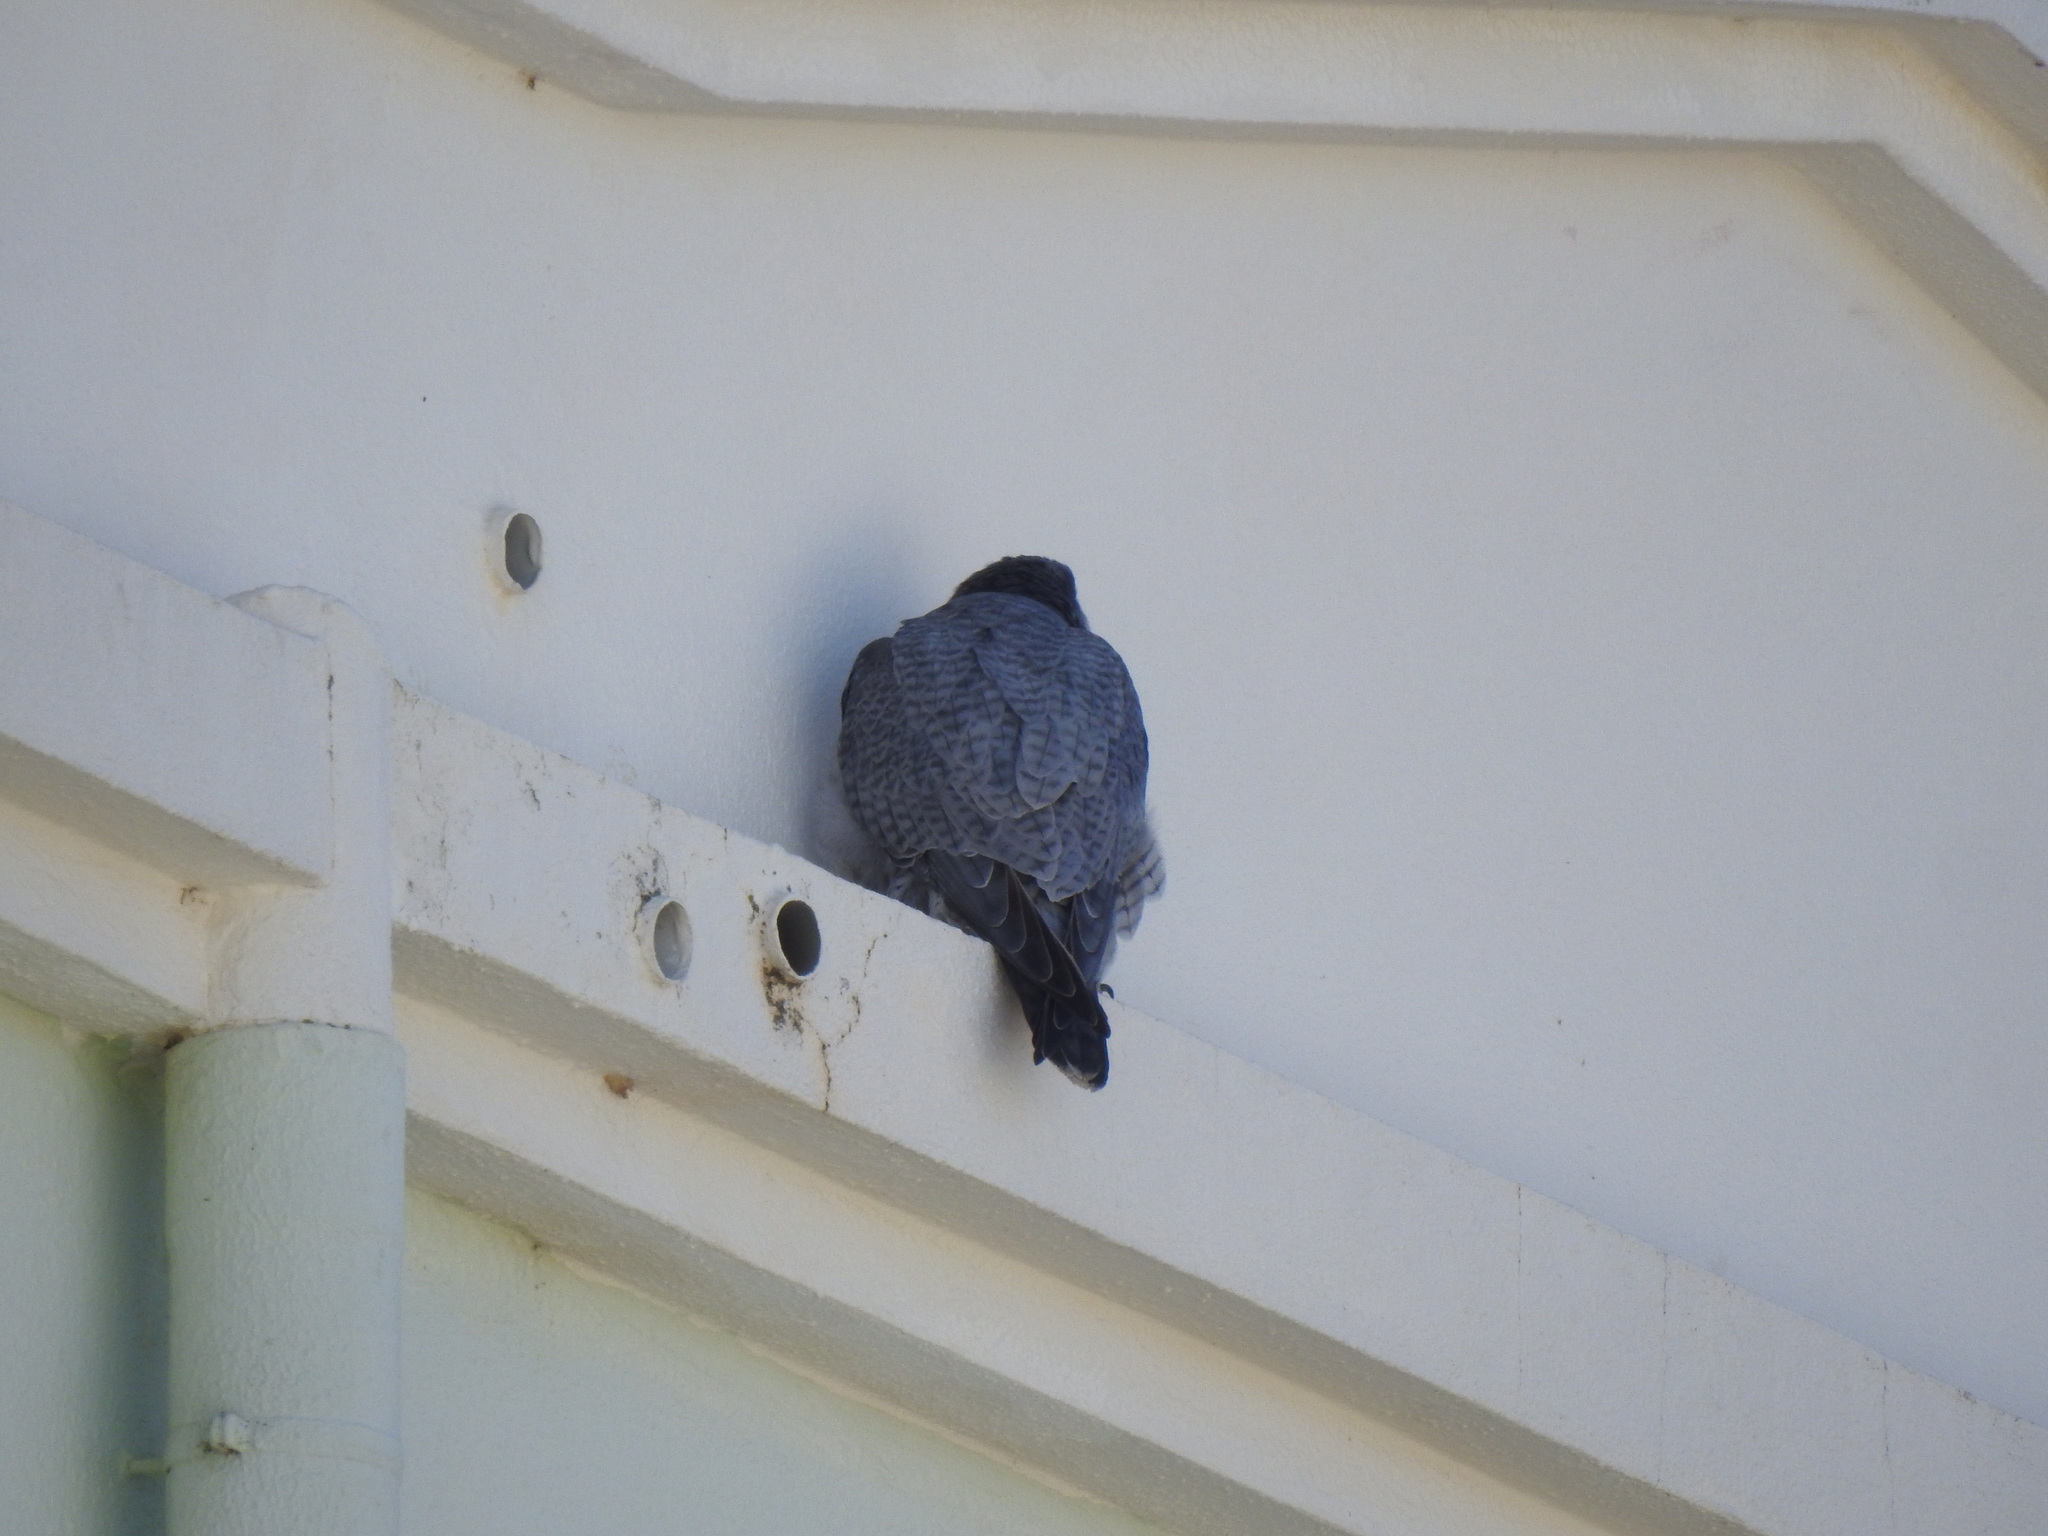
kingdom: Animalia
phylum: Chordata
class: Aves
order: Falconiformes
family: Falconidae
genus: Falco
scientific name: Falco peregrinus
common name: Peregrine falcon
